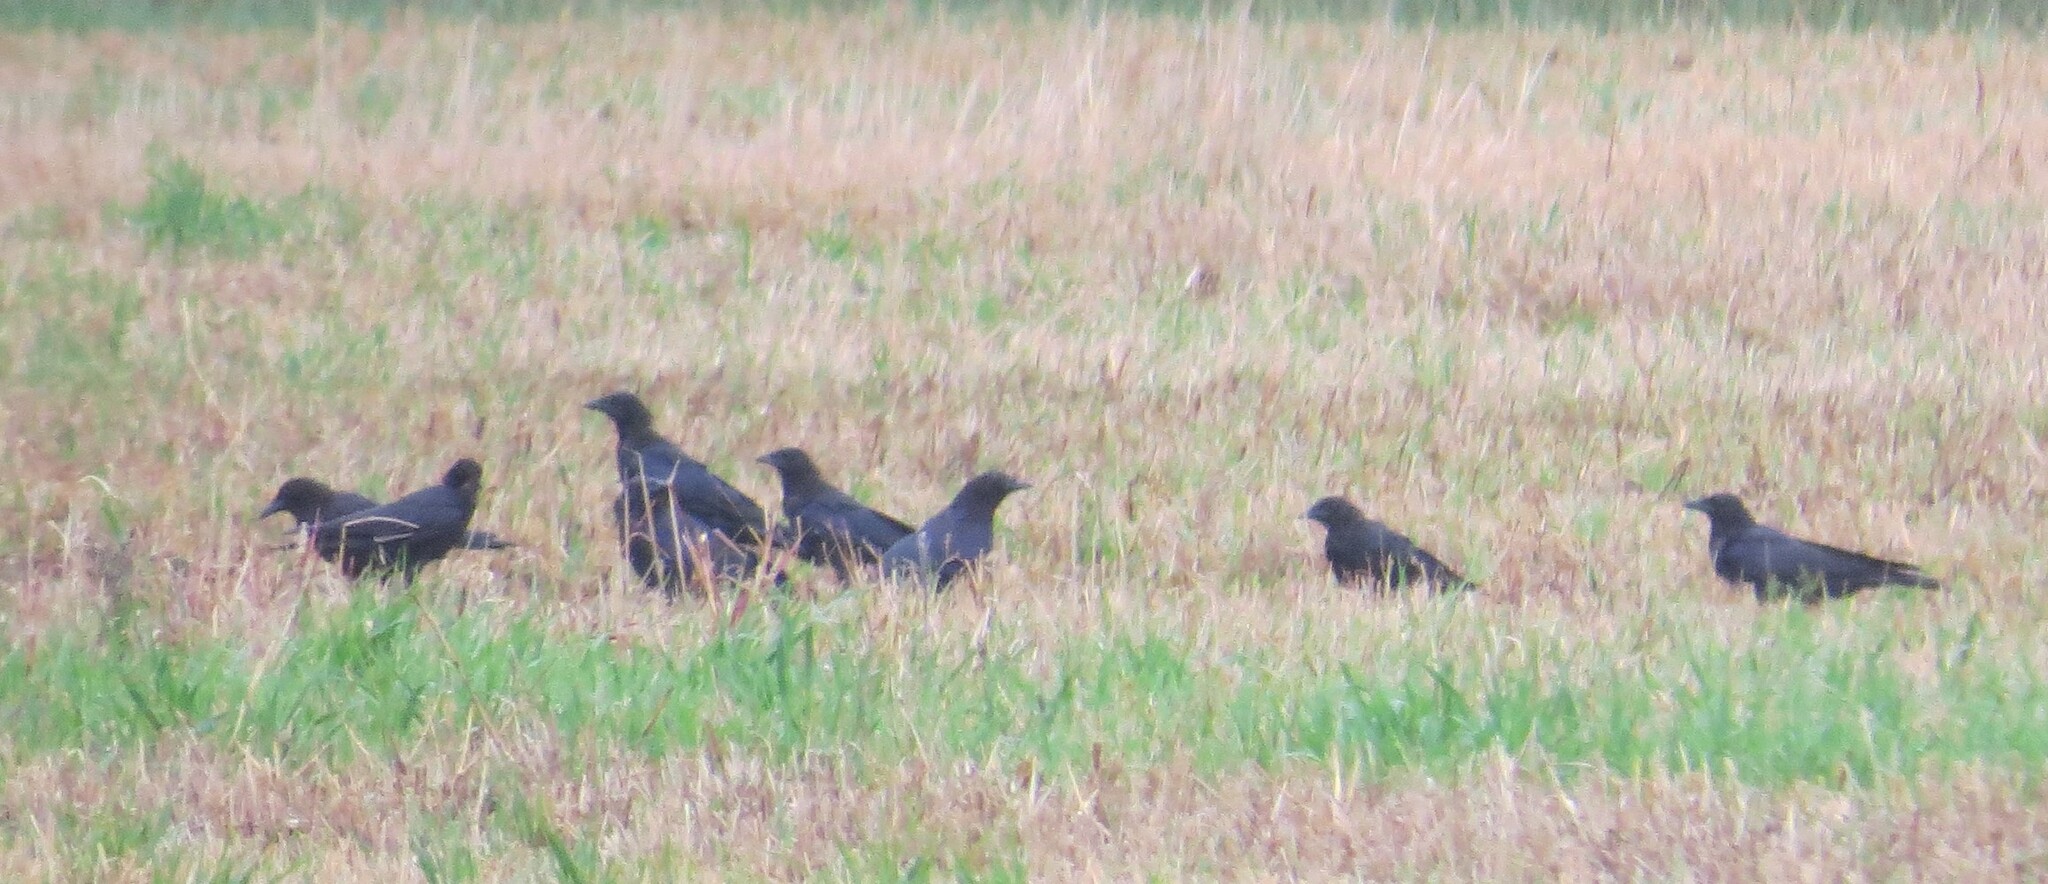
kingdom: Animalia
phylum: Chordata
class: Aves
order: Passeriformes
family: Corvidae
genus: Corvus
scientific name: Corvus brachyrhynchos
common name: American crow
